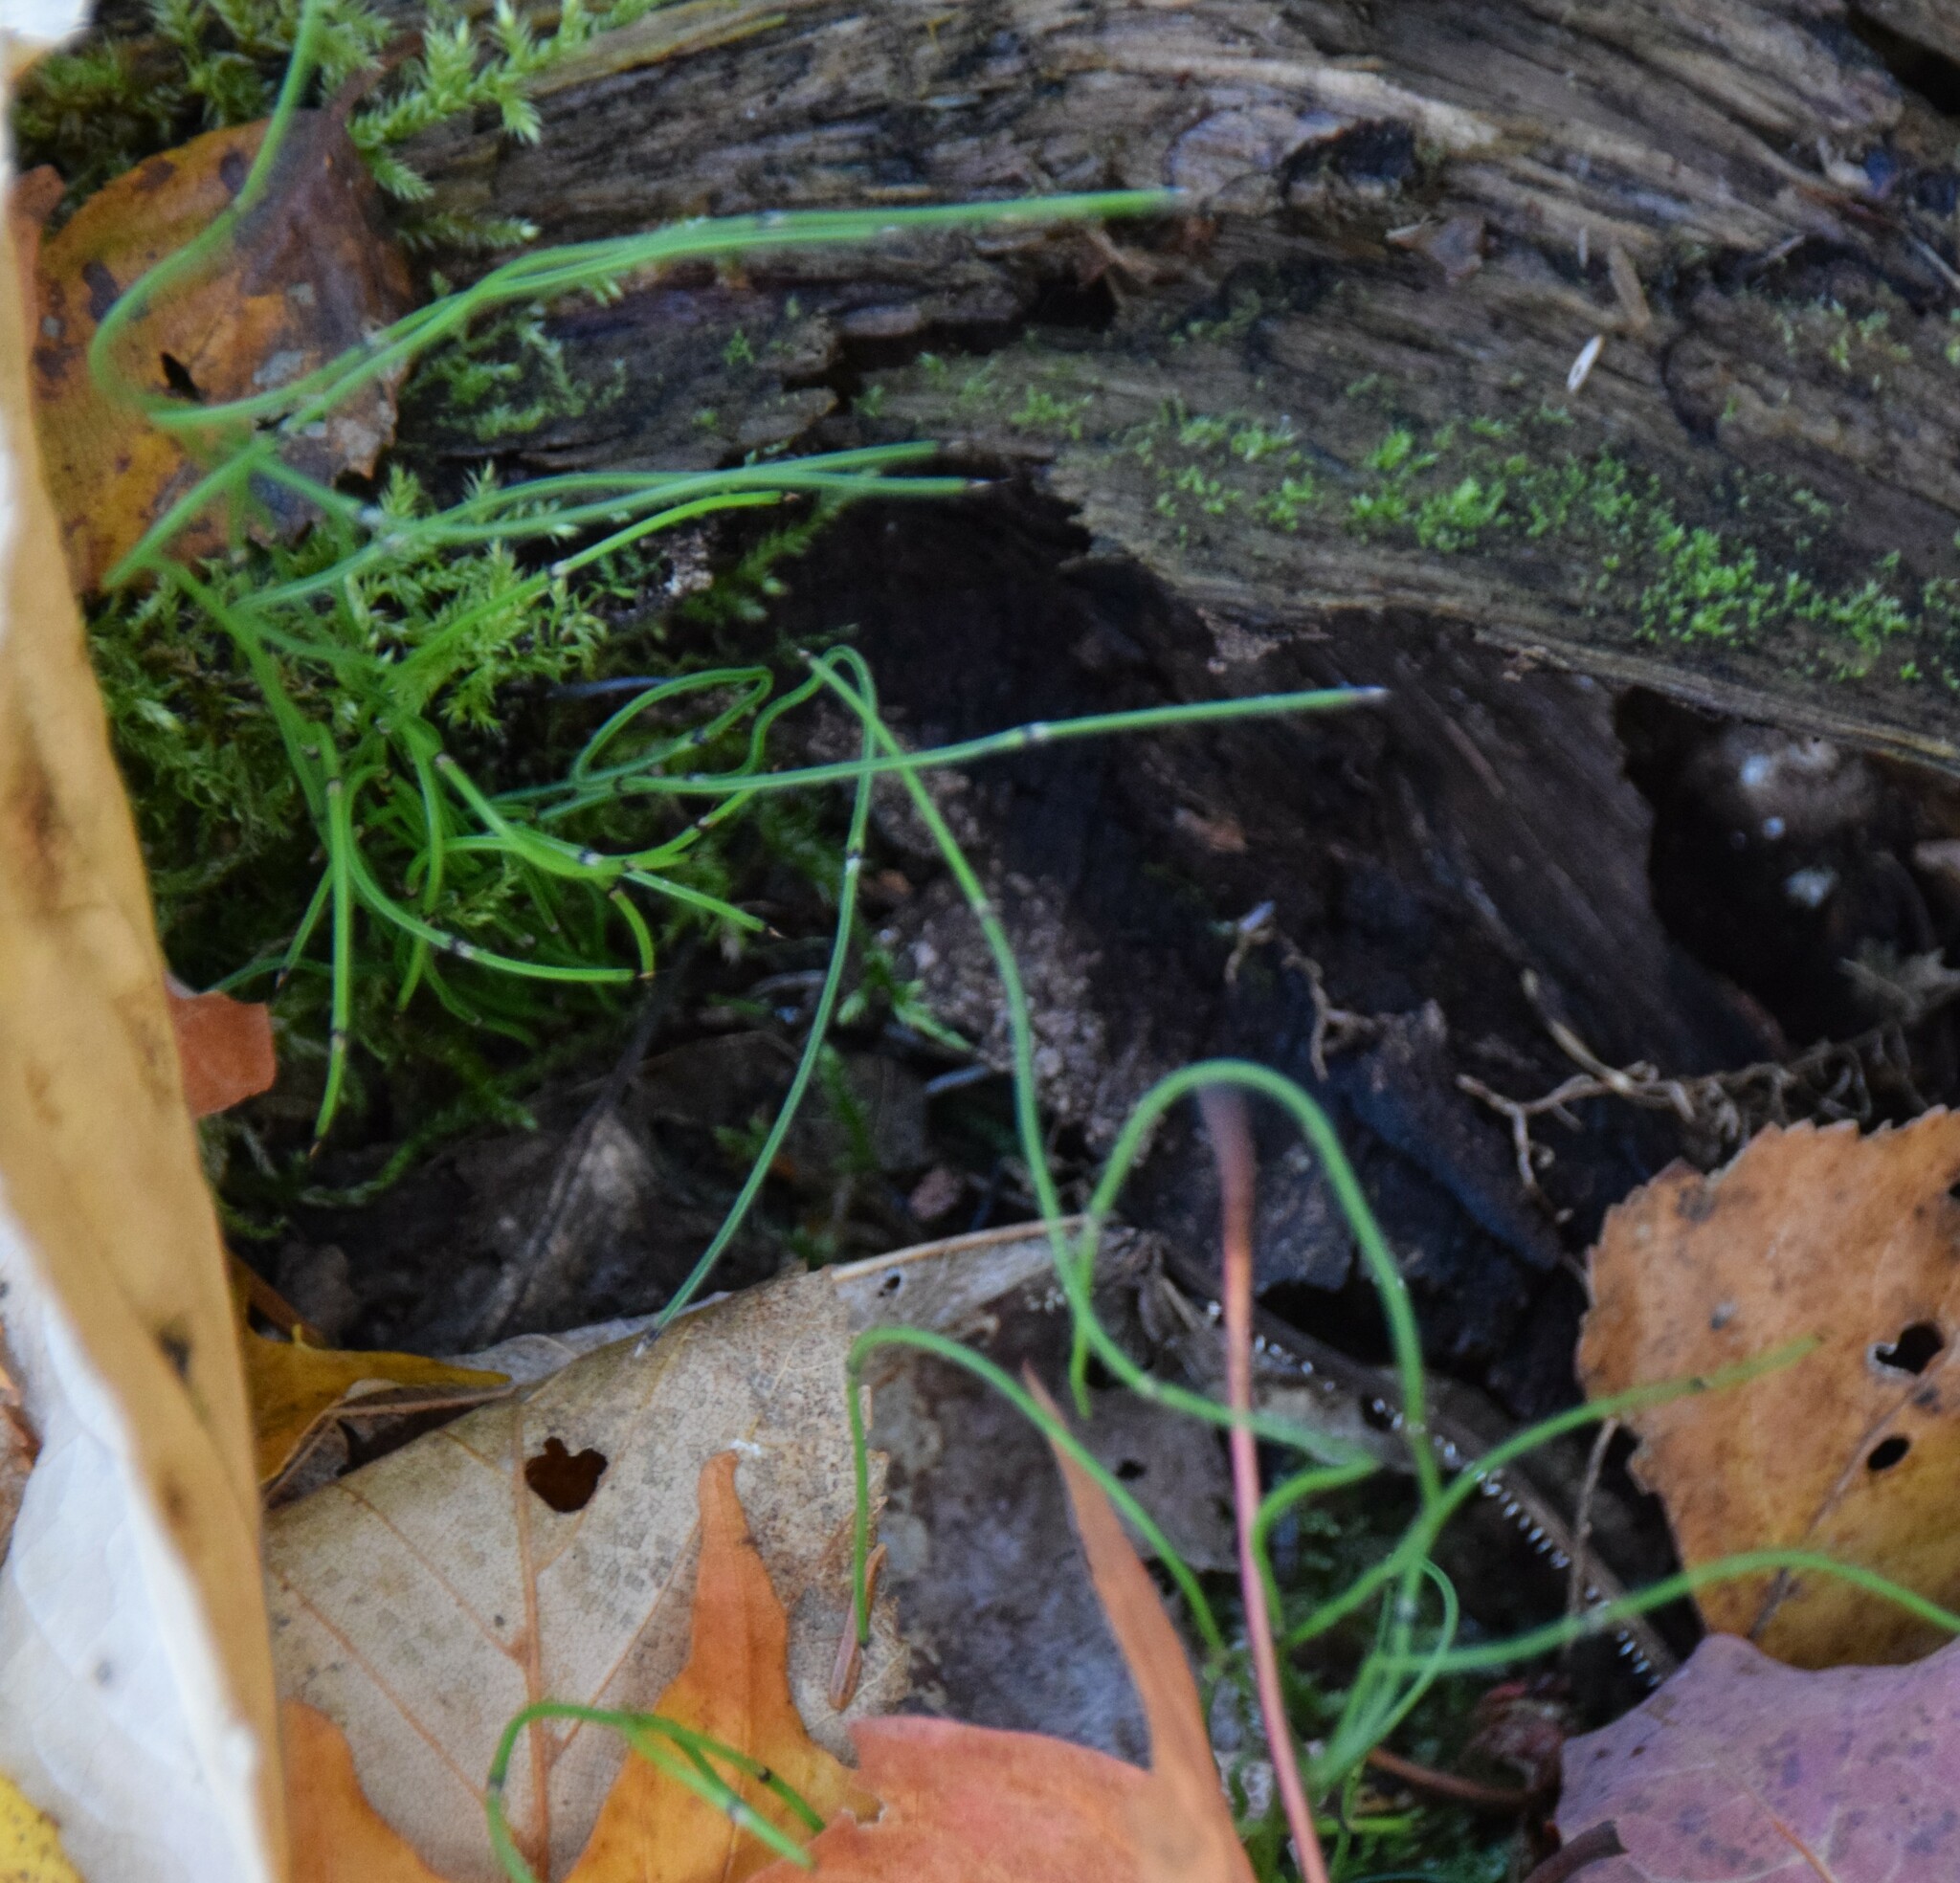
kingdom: Plantae
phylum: Tracheophyta
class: Polypodiopsida
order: Equisetales
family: Equisetaceae
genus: Equisetum
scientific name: Equisetum scirpoides
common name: Delicate horsetail
